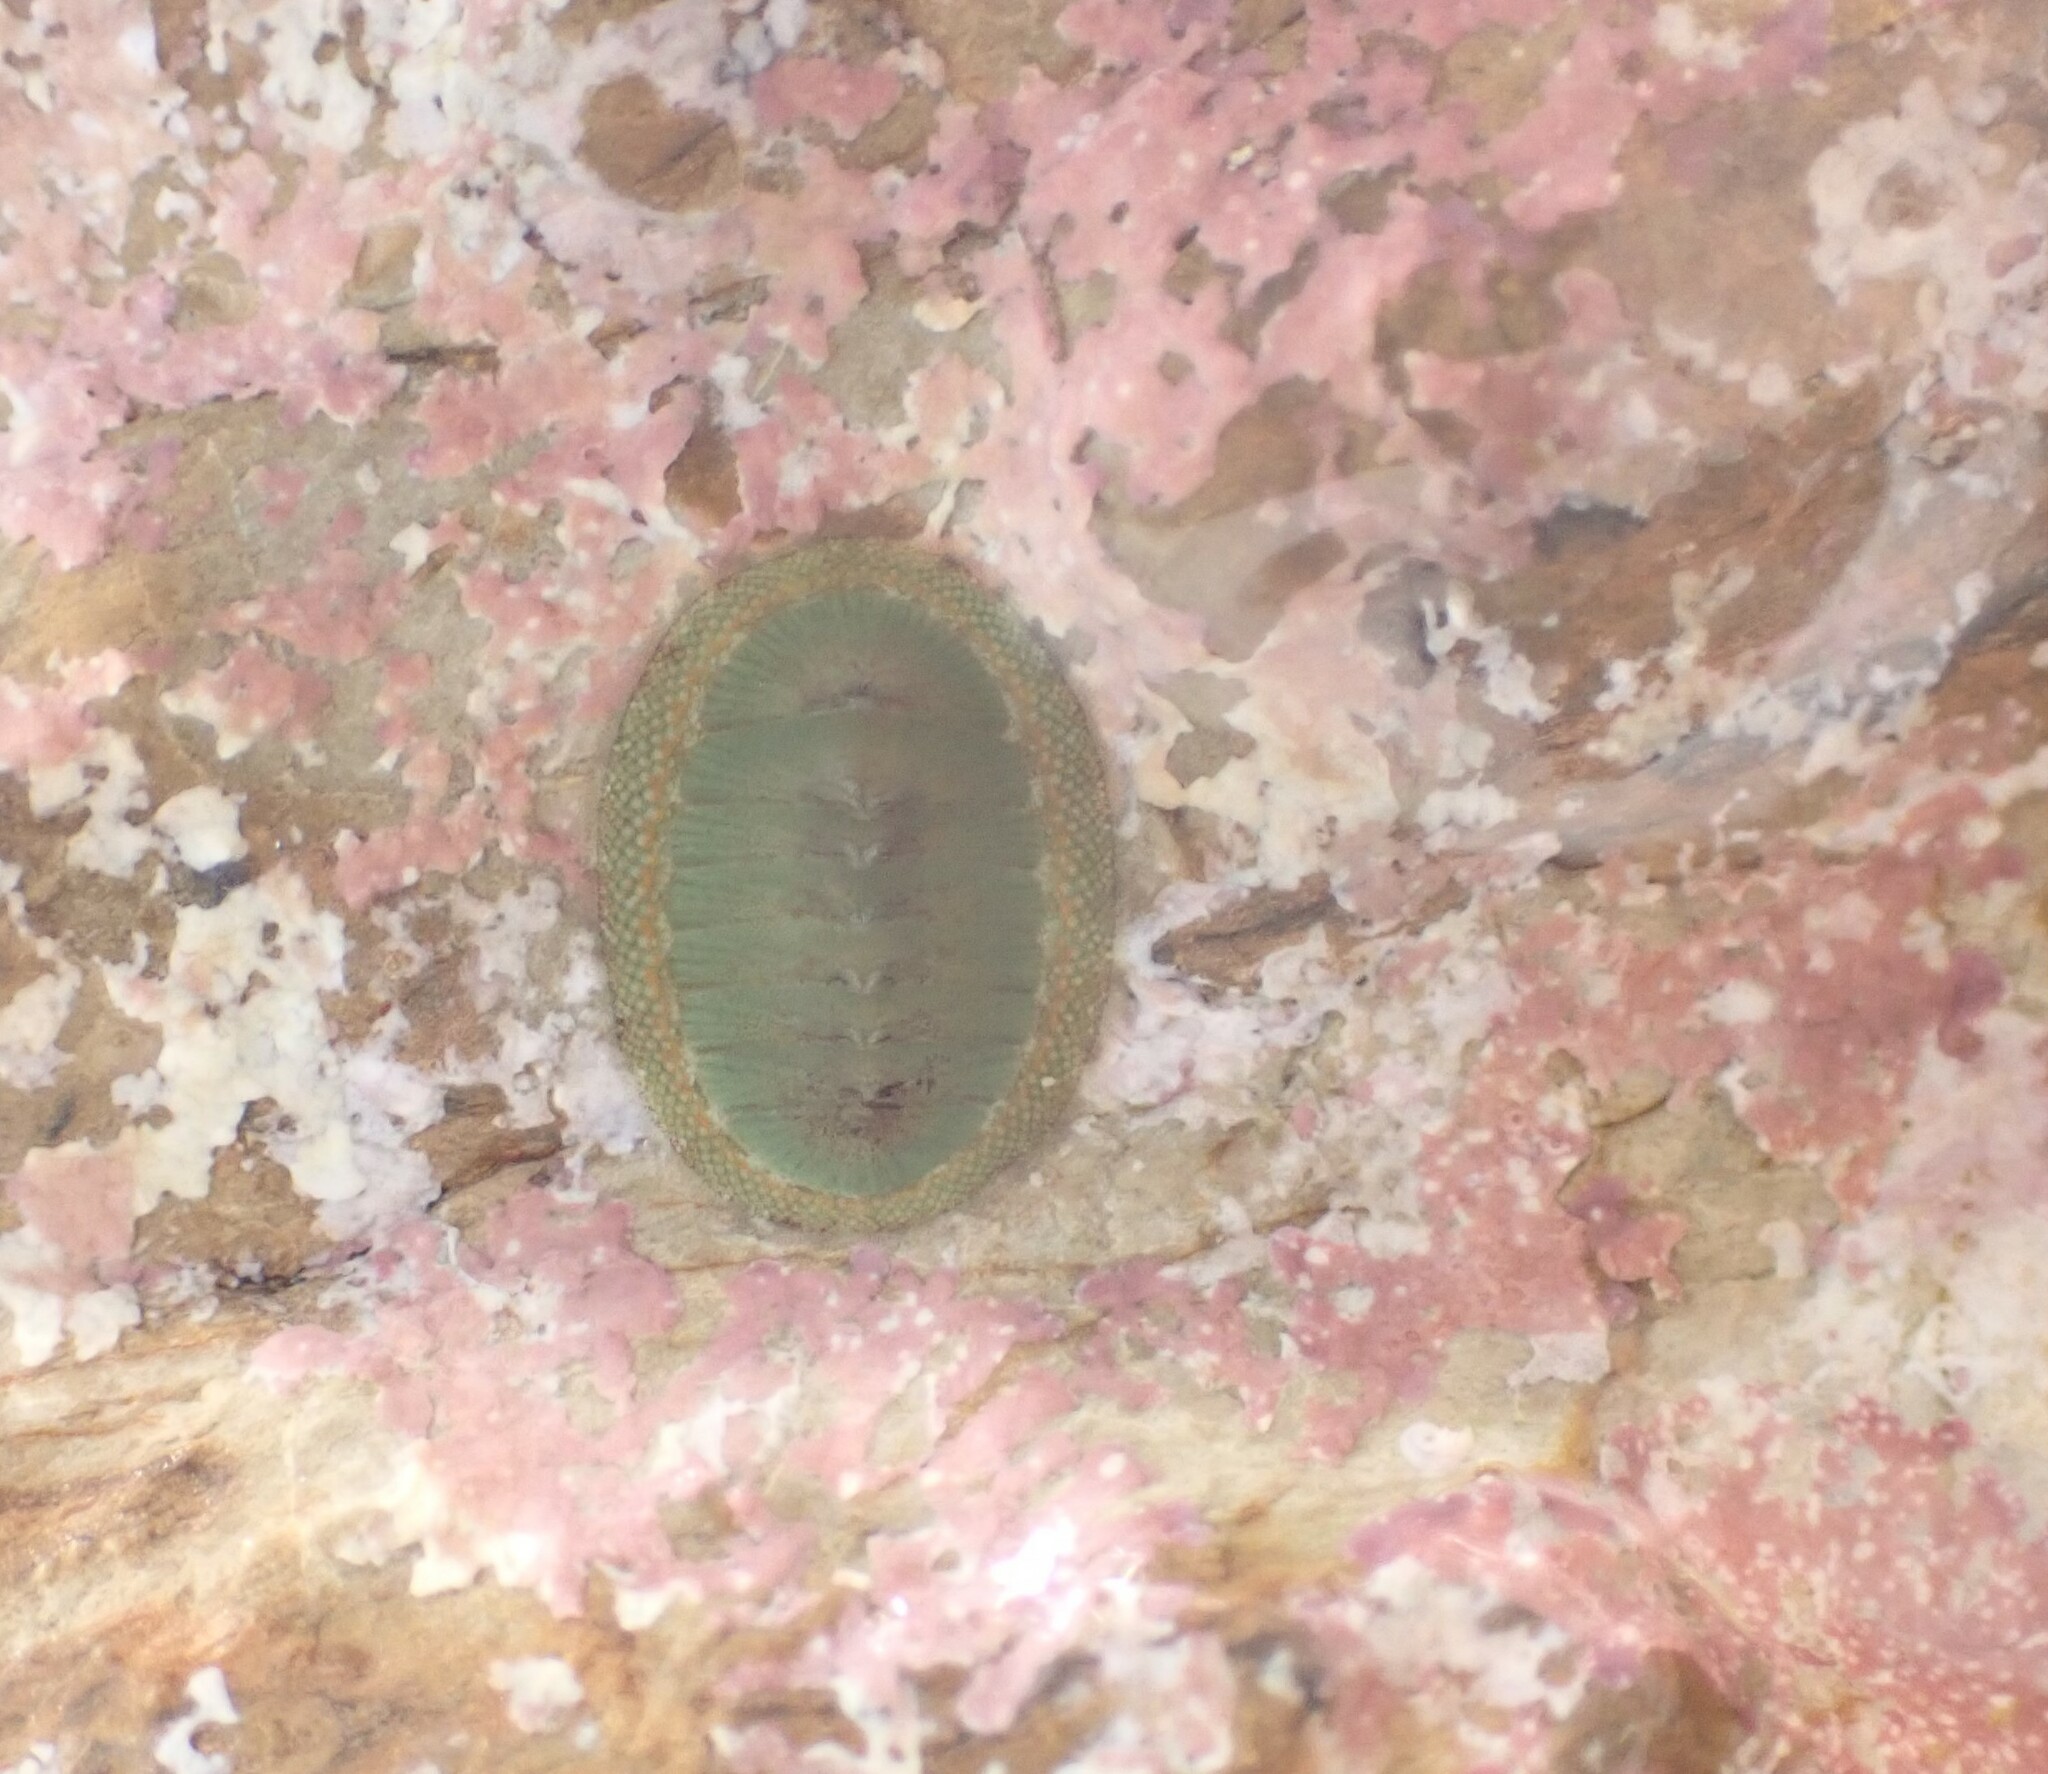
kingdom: Animalia
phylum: Mollusca
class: Polyplacophora
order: Chitonida
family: Chitonidae
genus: Chiton
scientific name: Chiton glaucus
